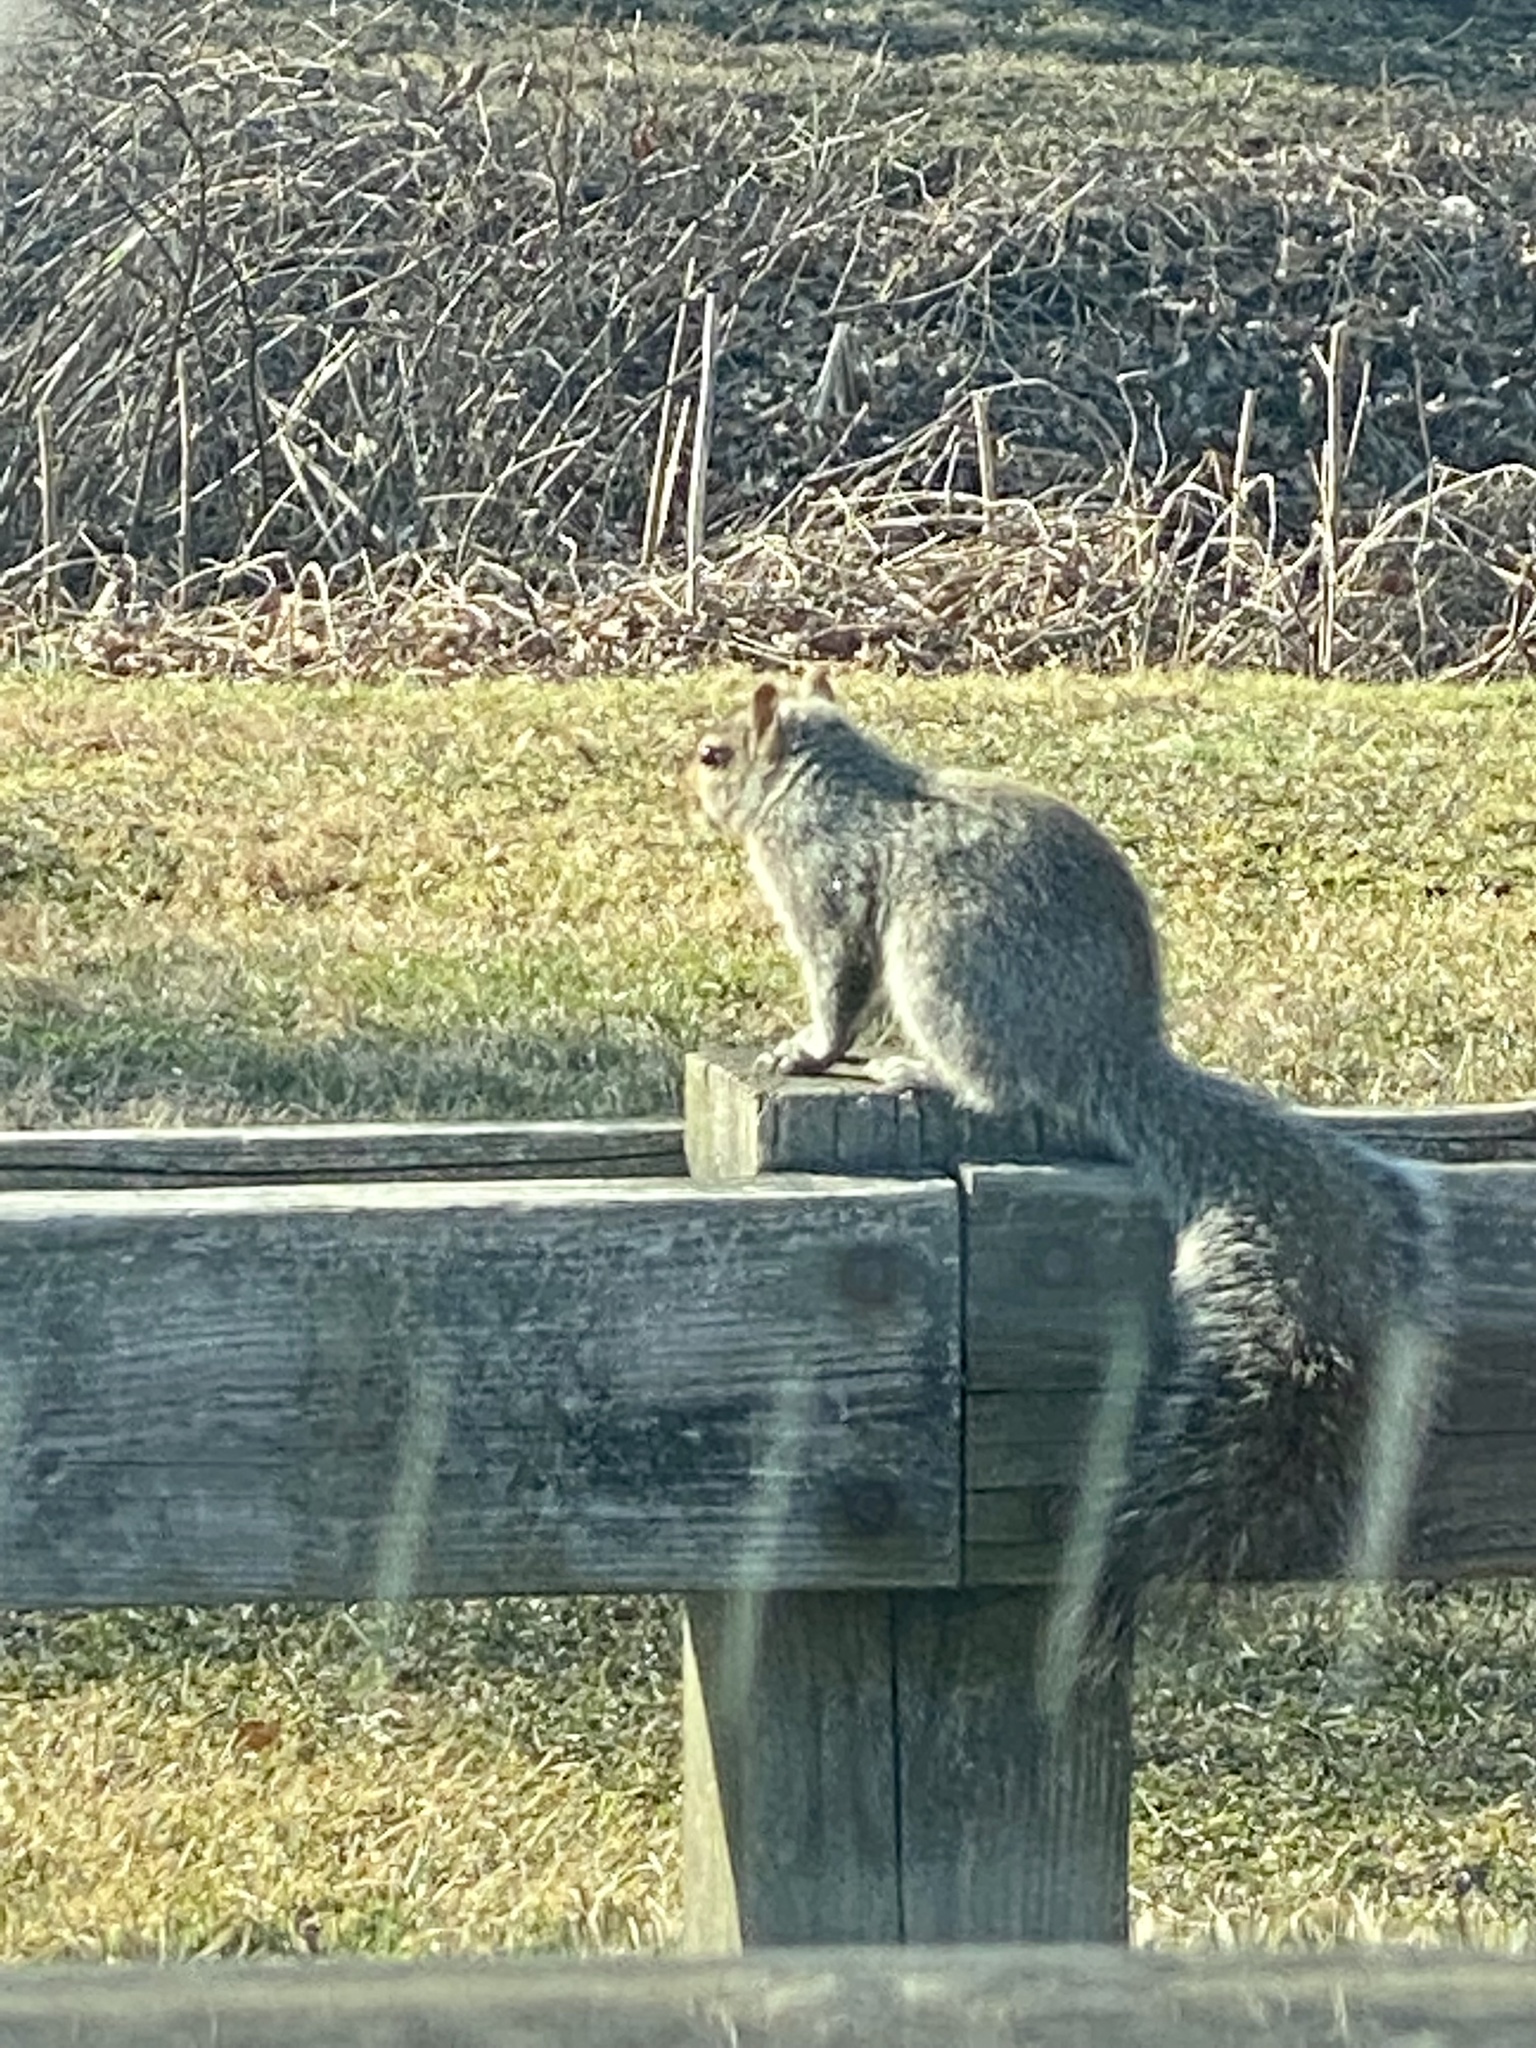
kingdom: Animalia
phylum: Chordata
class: Mammalia
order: Rodentia
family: Sciuridae
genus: Sciurus
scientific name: Sciurus carolinensis
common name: Eastern gray squirrel
